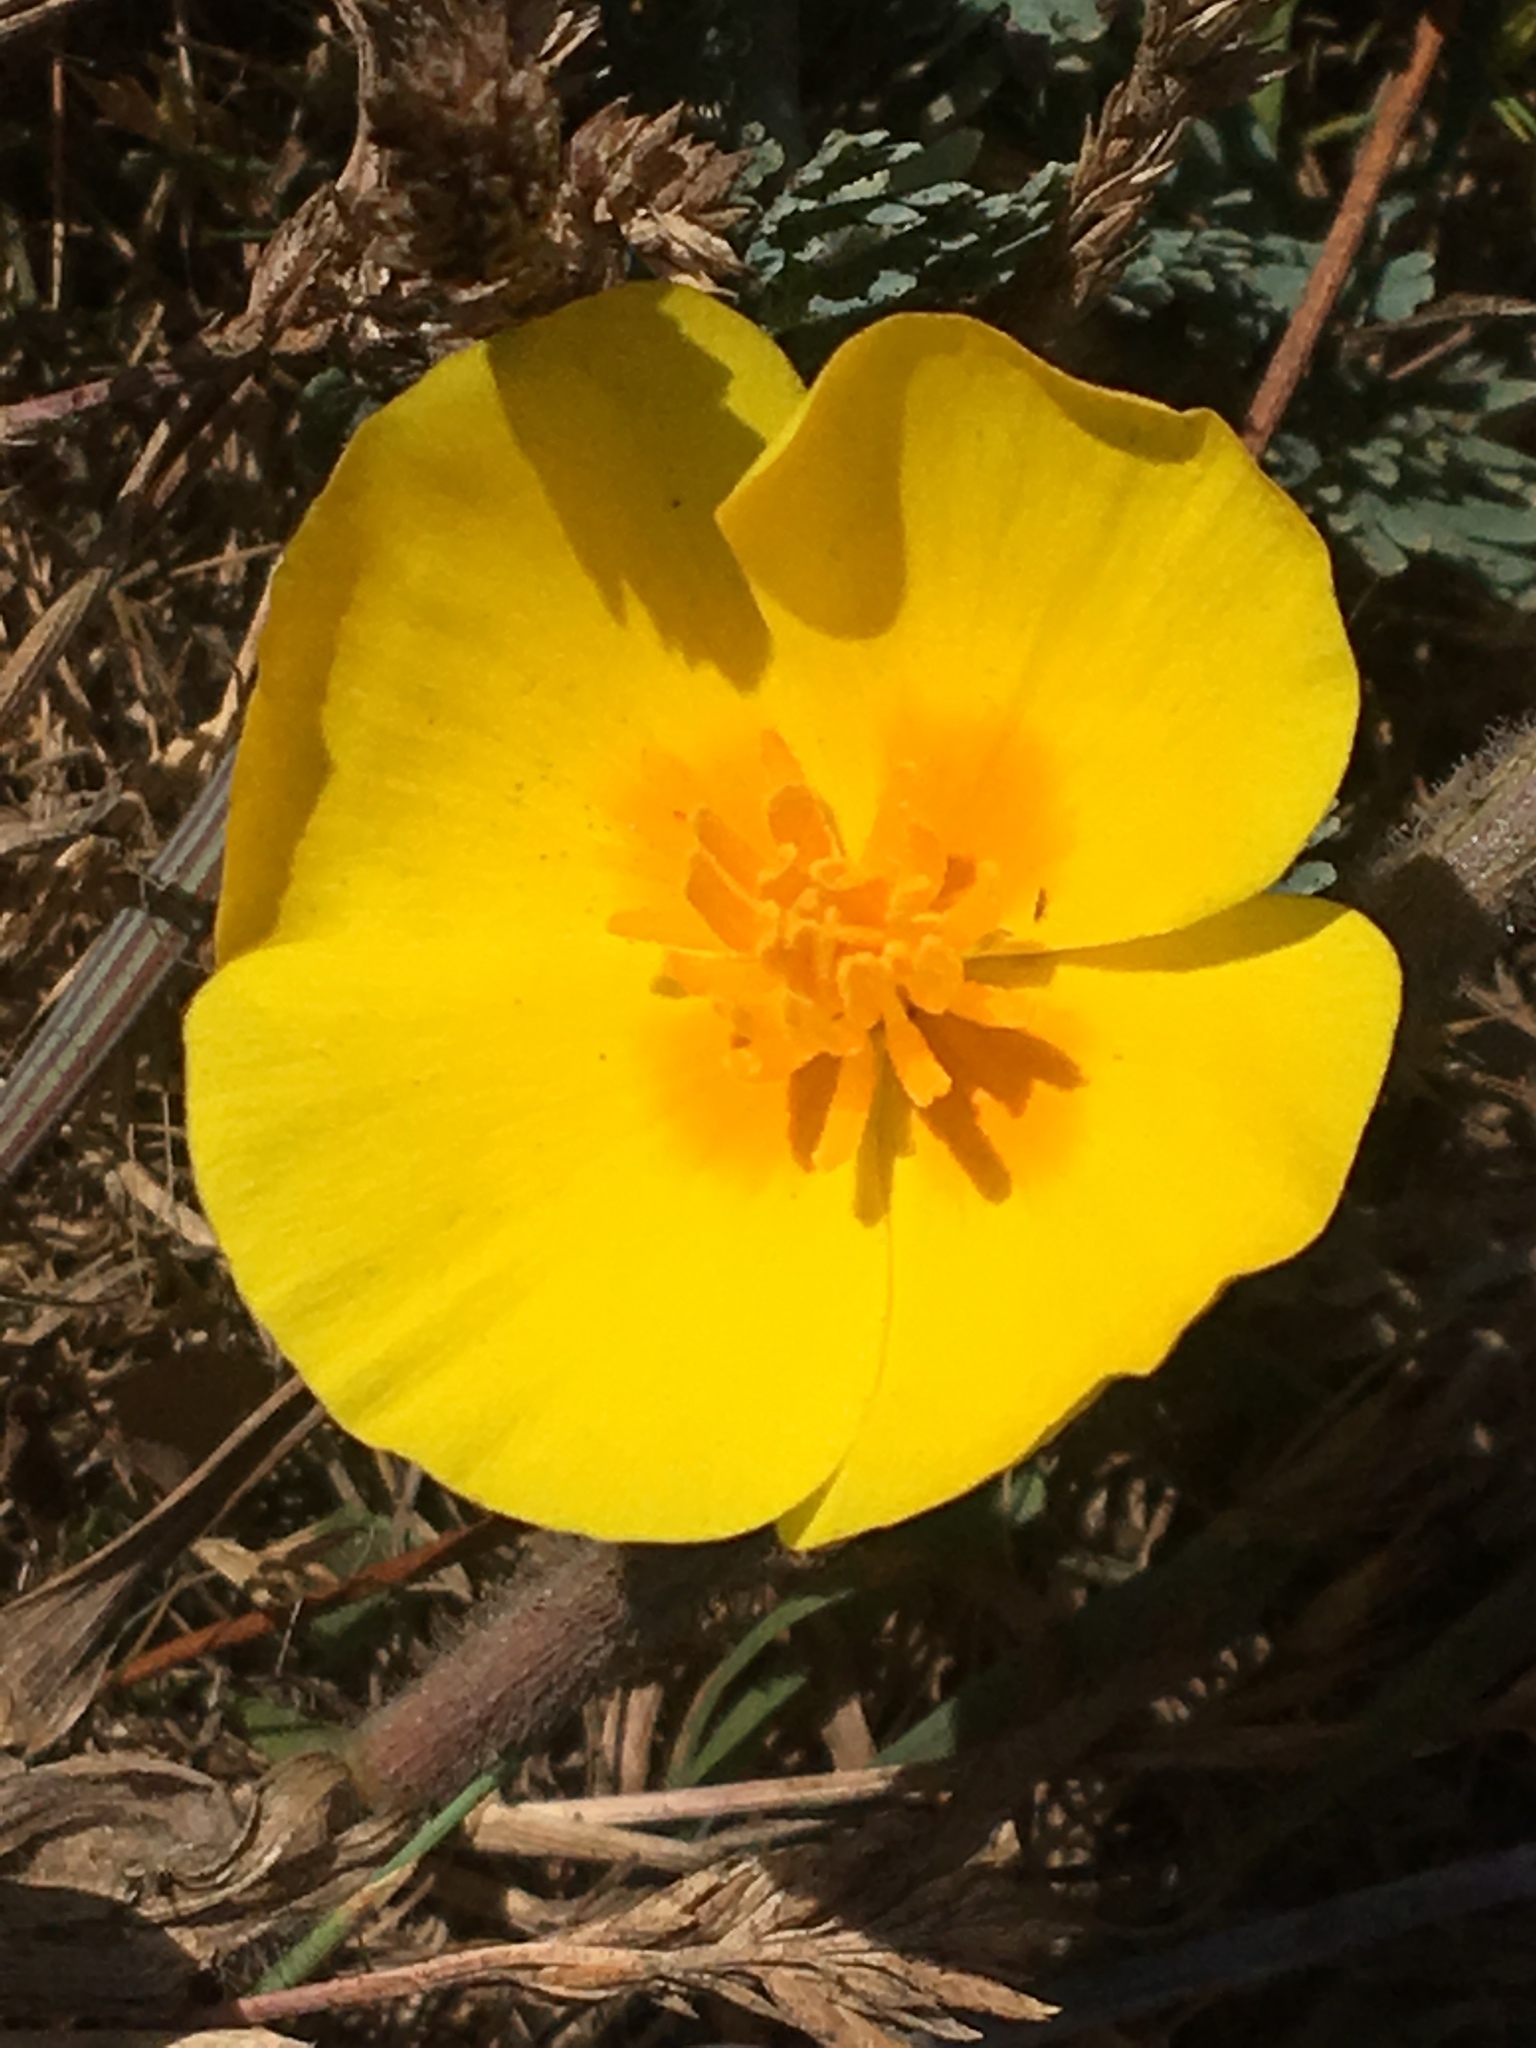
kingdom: Plantae
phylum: Tracheophyta
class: Magnoliopsida
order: Ranunculales
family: Papaveraceae
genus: Eschscholzia
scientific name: Eschscholzia californica
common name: California poppy
